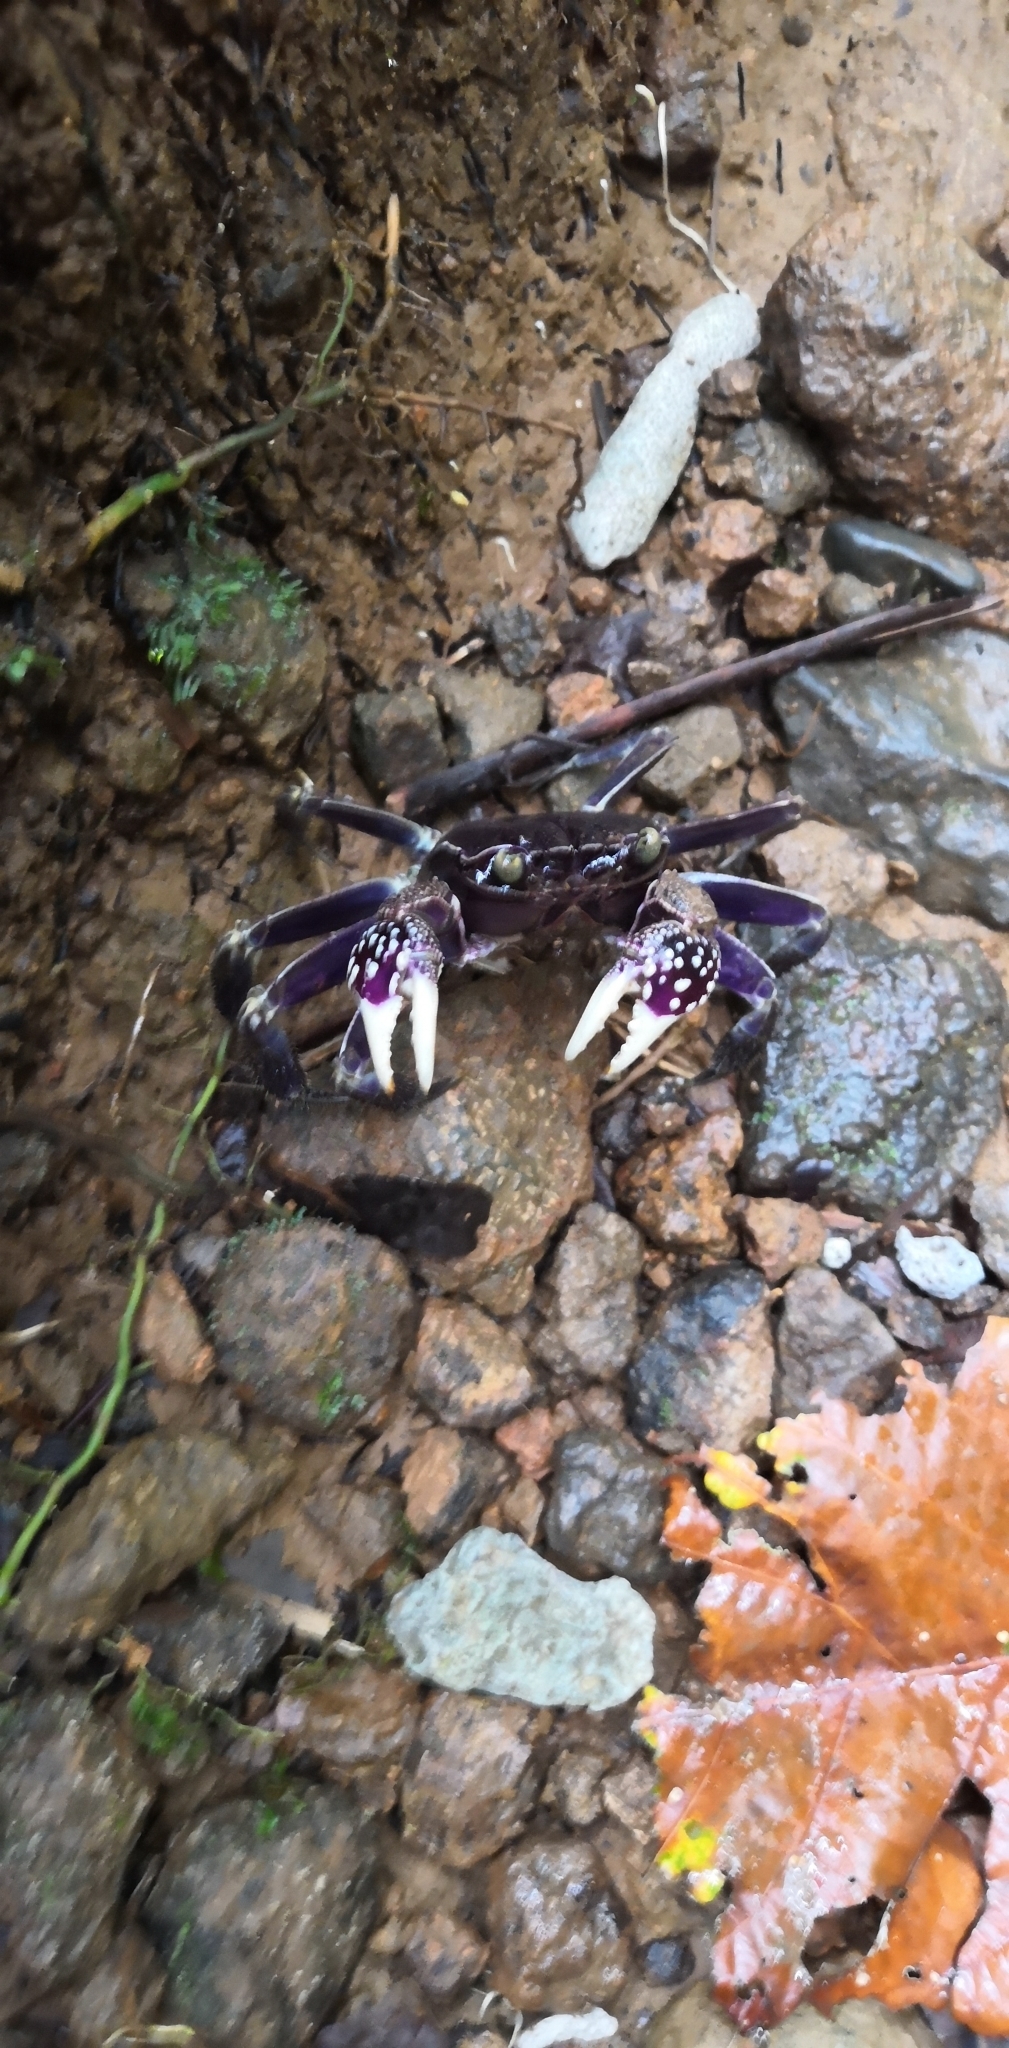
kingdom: Animalia
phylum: Arthropoda
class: Malacostraca
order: Decapoda
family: Sesarmidae
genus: Sesarmops
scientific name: Sesarmops atrorubens
